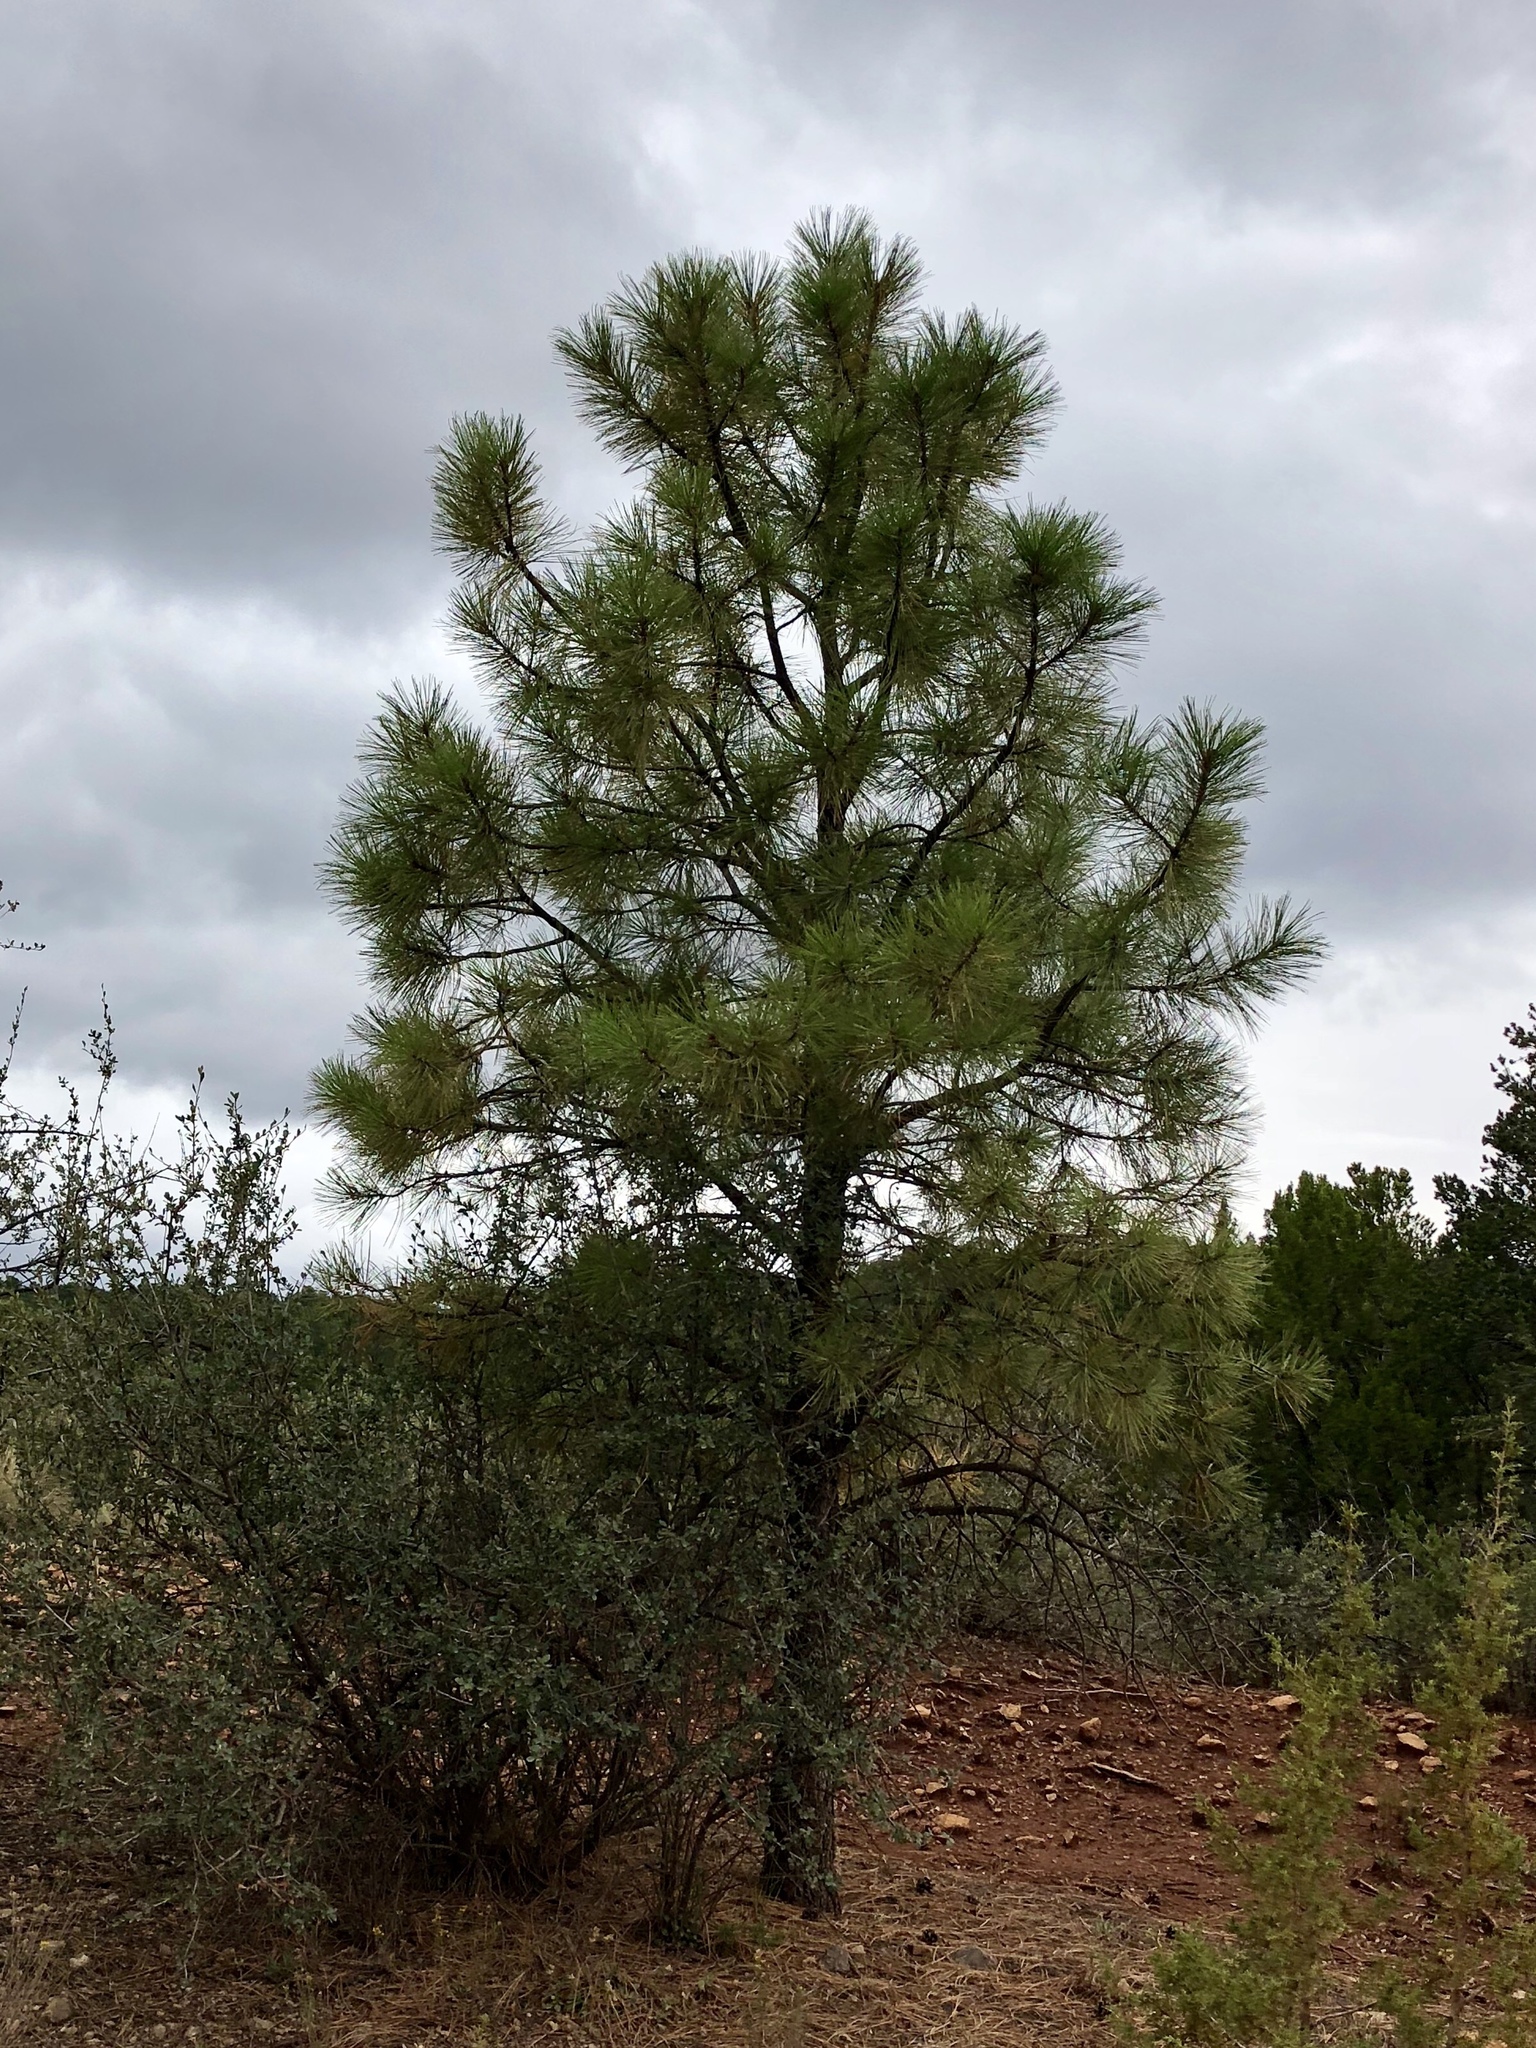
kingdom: Plantae
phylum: Tracheophyta
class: Pinopsida
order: Pinales
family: Pinaceae
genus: Pinus
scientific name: Pinus ponderosa
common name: Western yellow-pine
